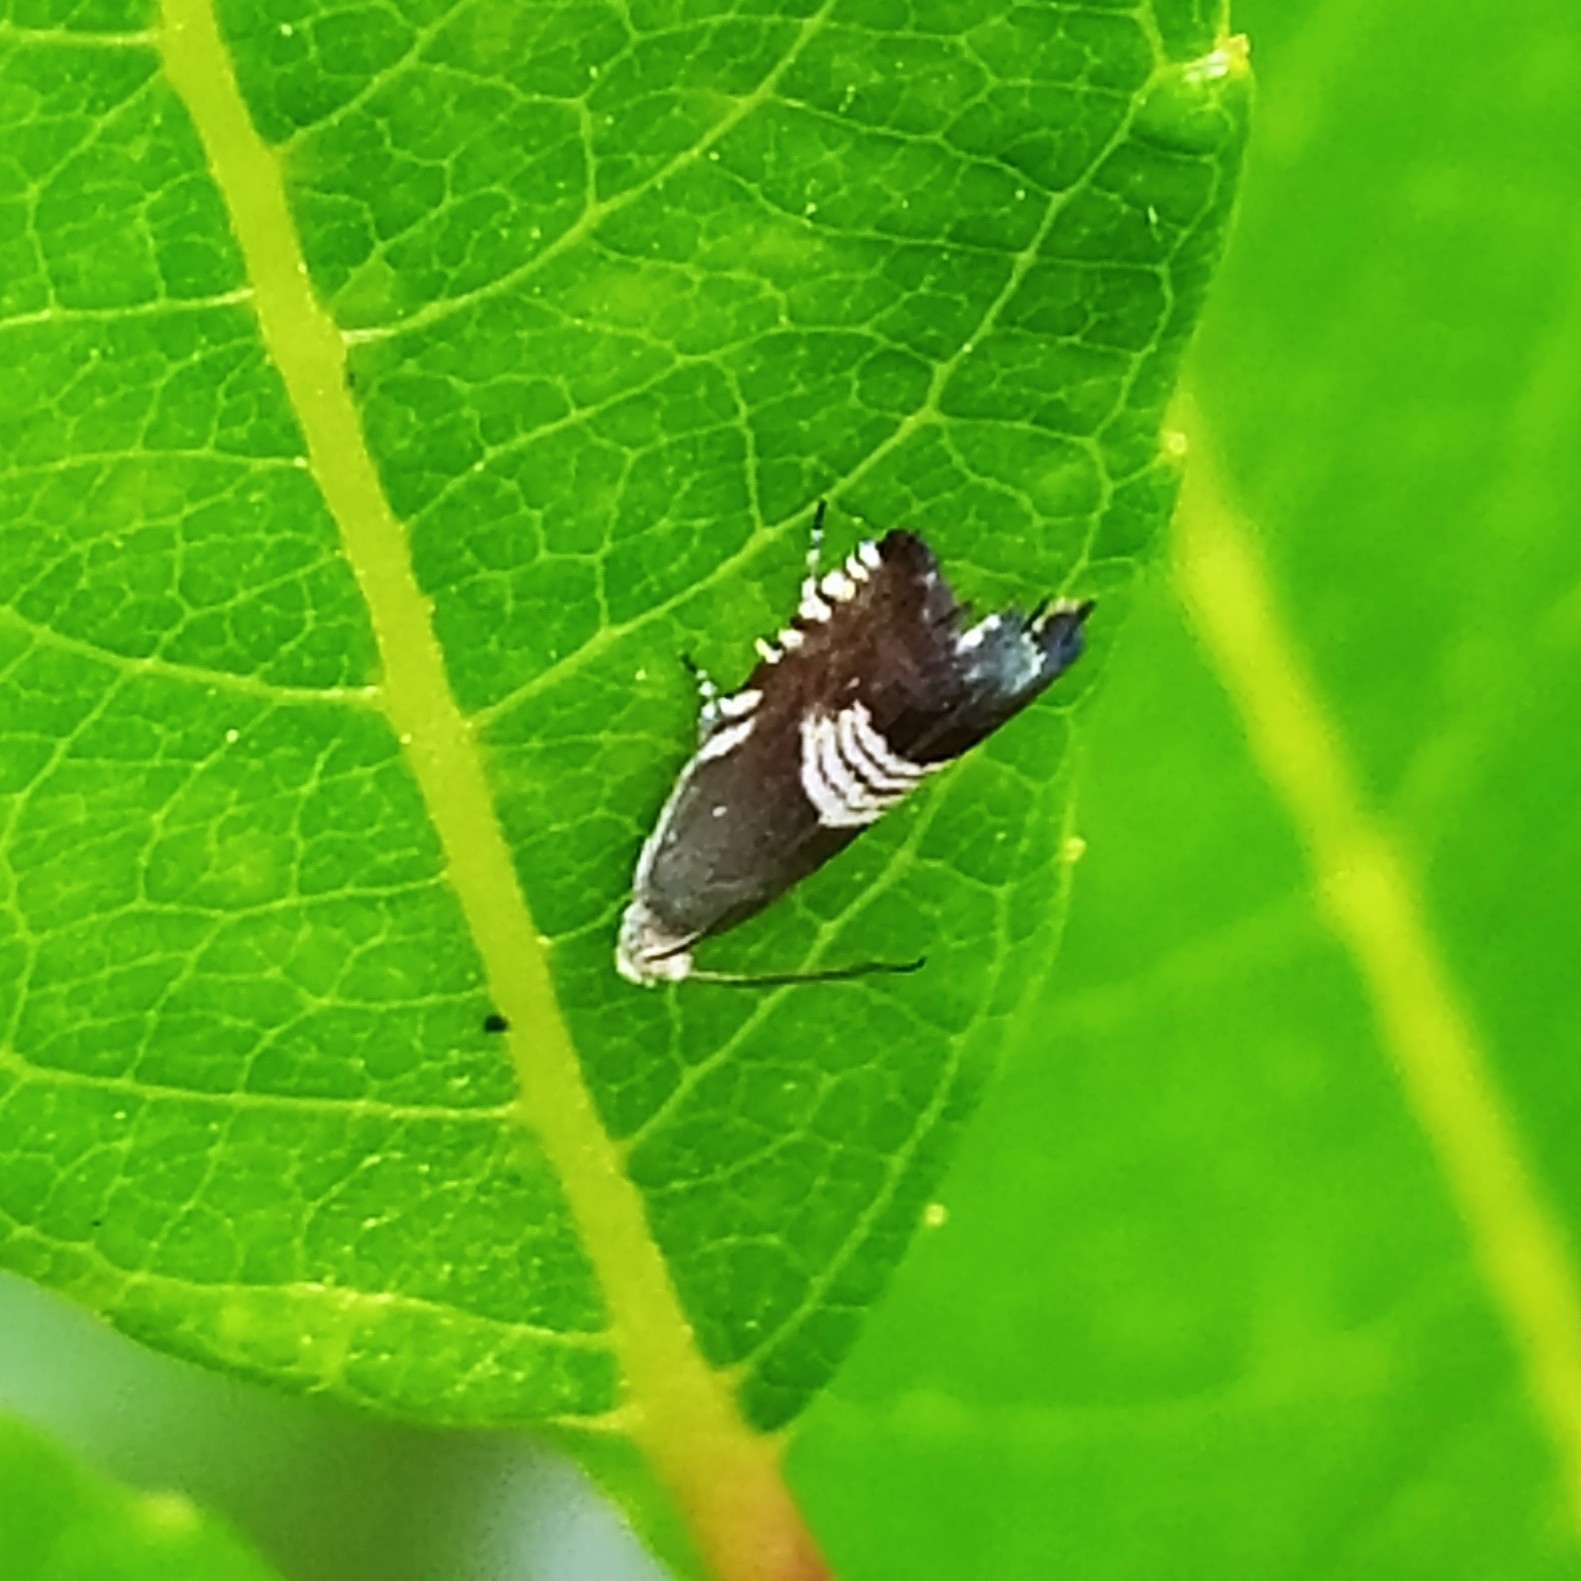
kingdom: Animalia
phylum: Arthropoda
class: Insecta
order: Lepidoptera
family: Tortricidae
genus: Grapholita
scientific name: Grapholita compositella
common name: Triple-stripe piercer
